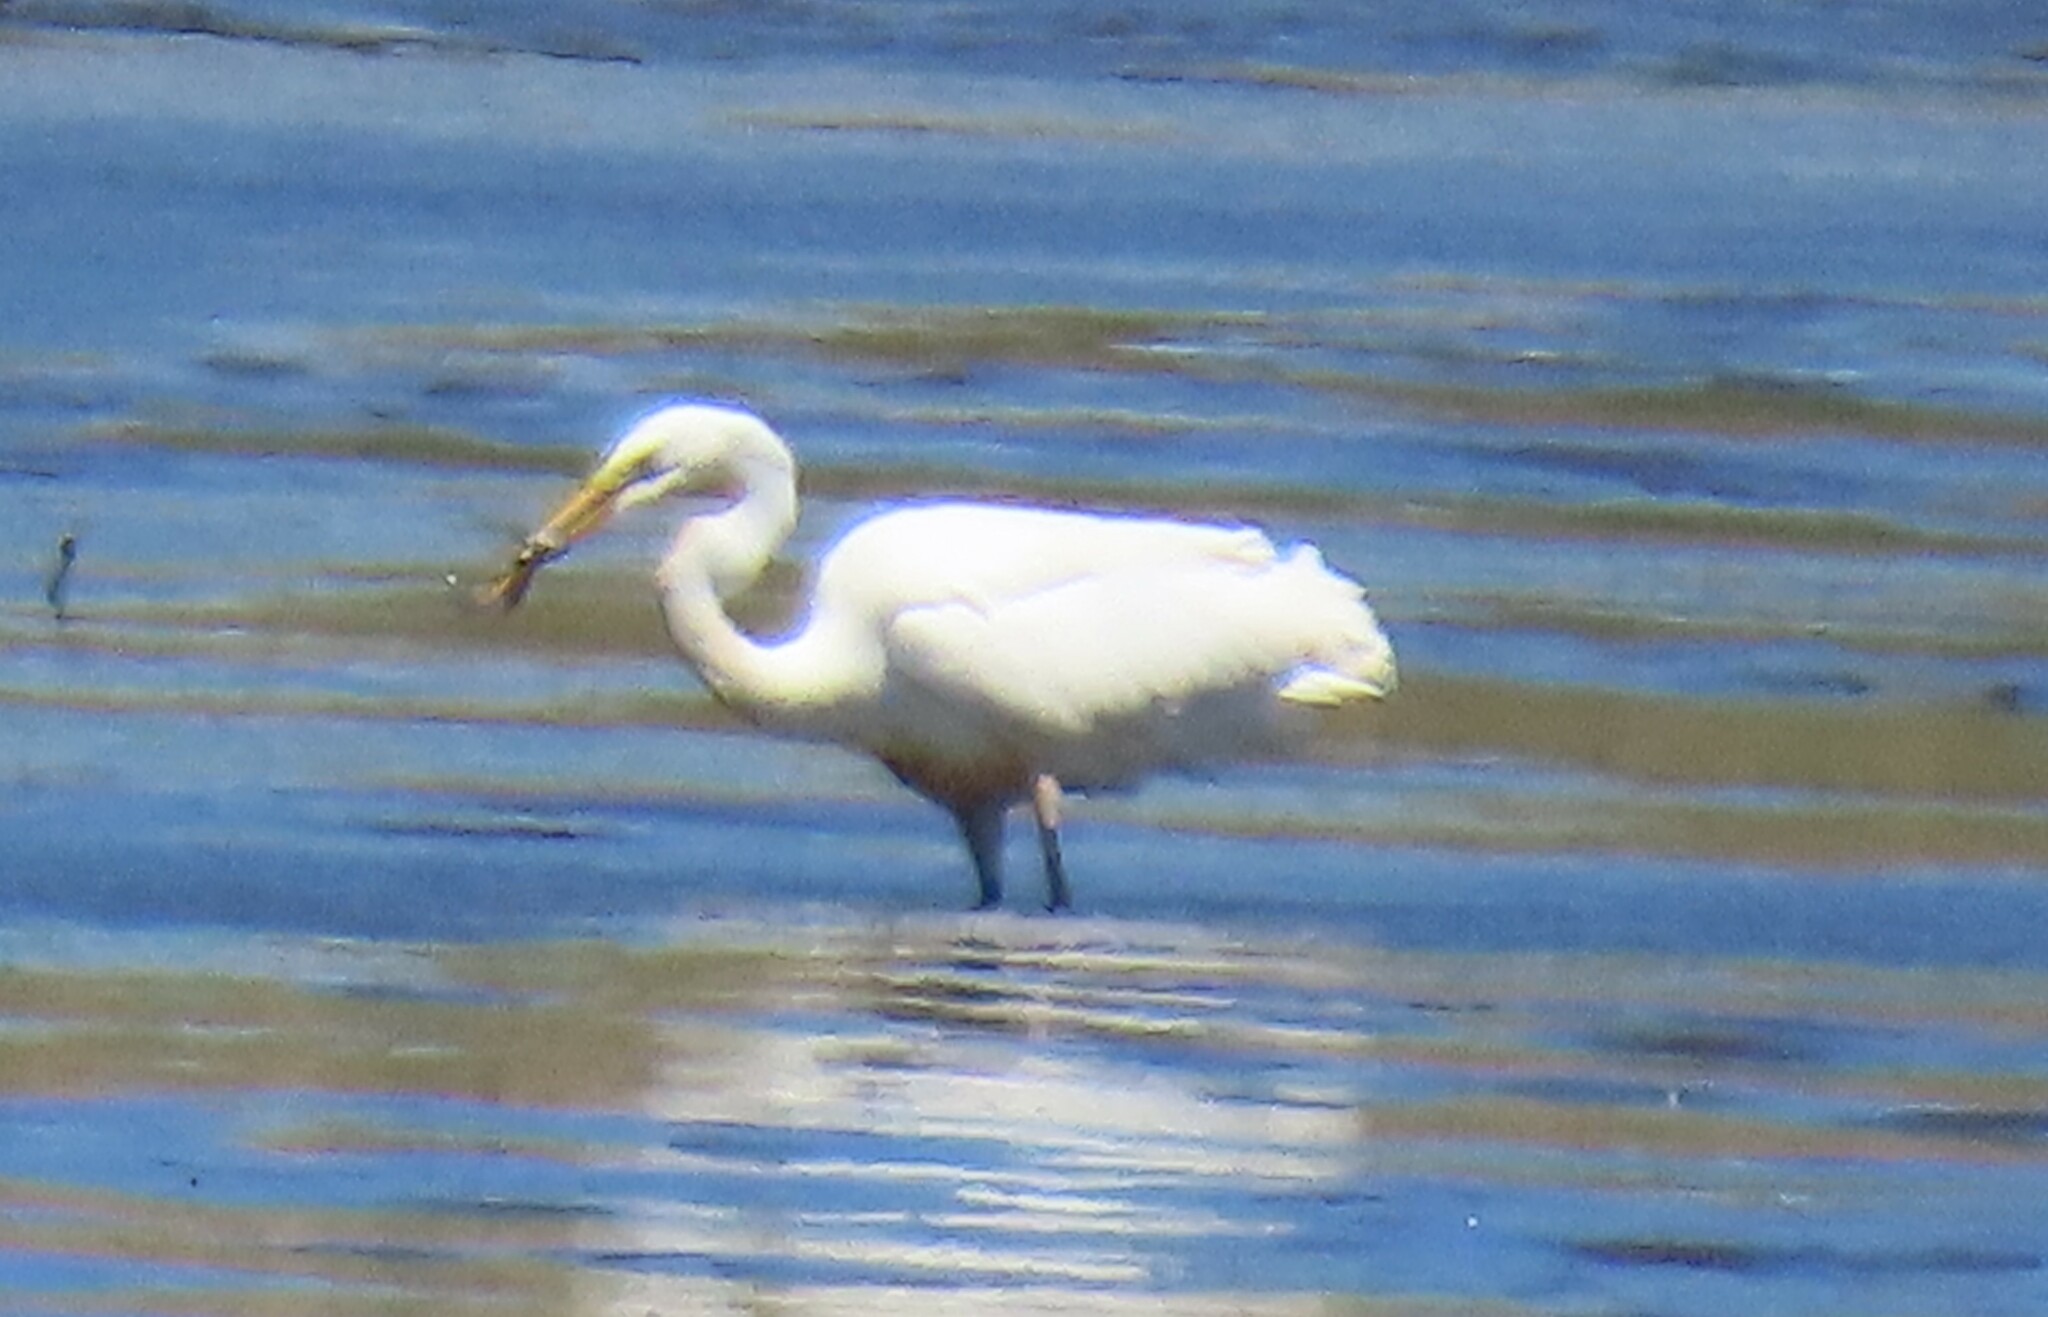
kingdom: Animalia
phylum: Chordata
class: Aves
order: Pelecaniformes
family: Ardeidae
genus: Ardea
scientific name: Ardea alba
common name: Great egret
